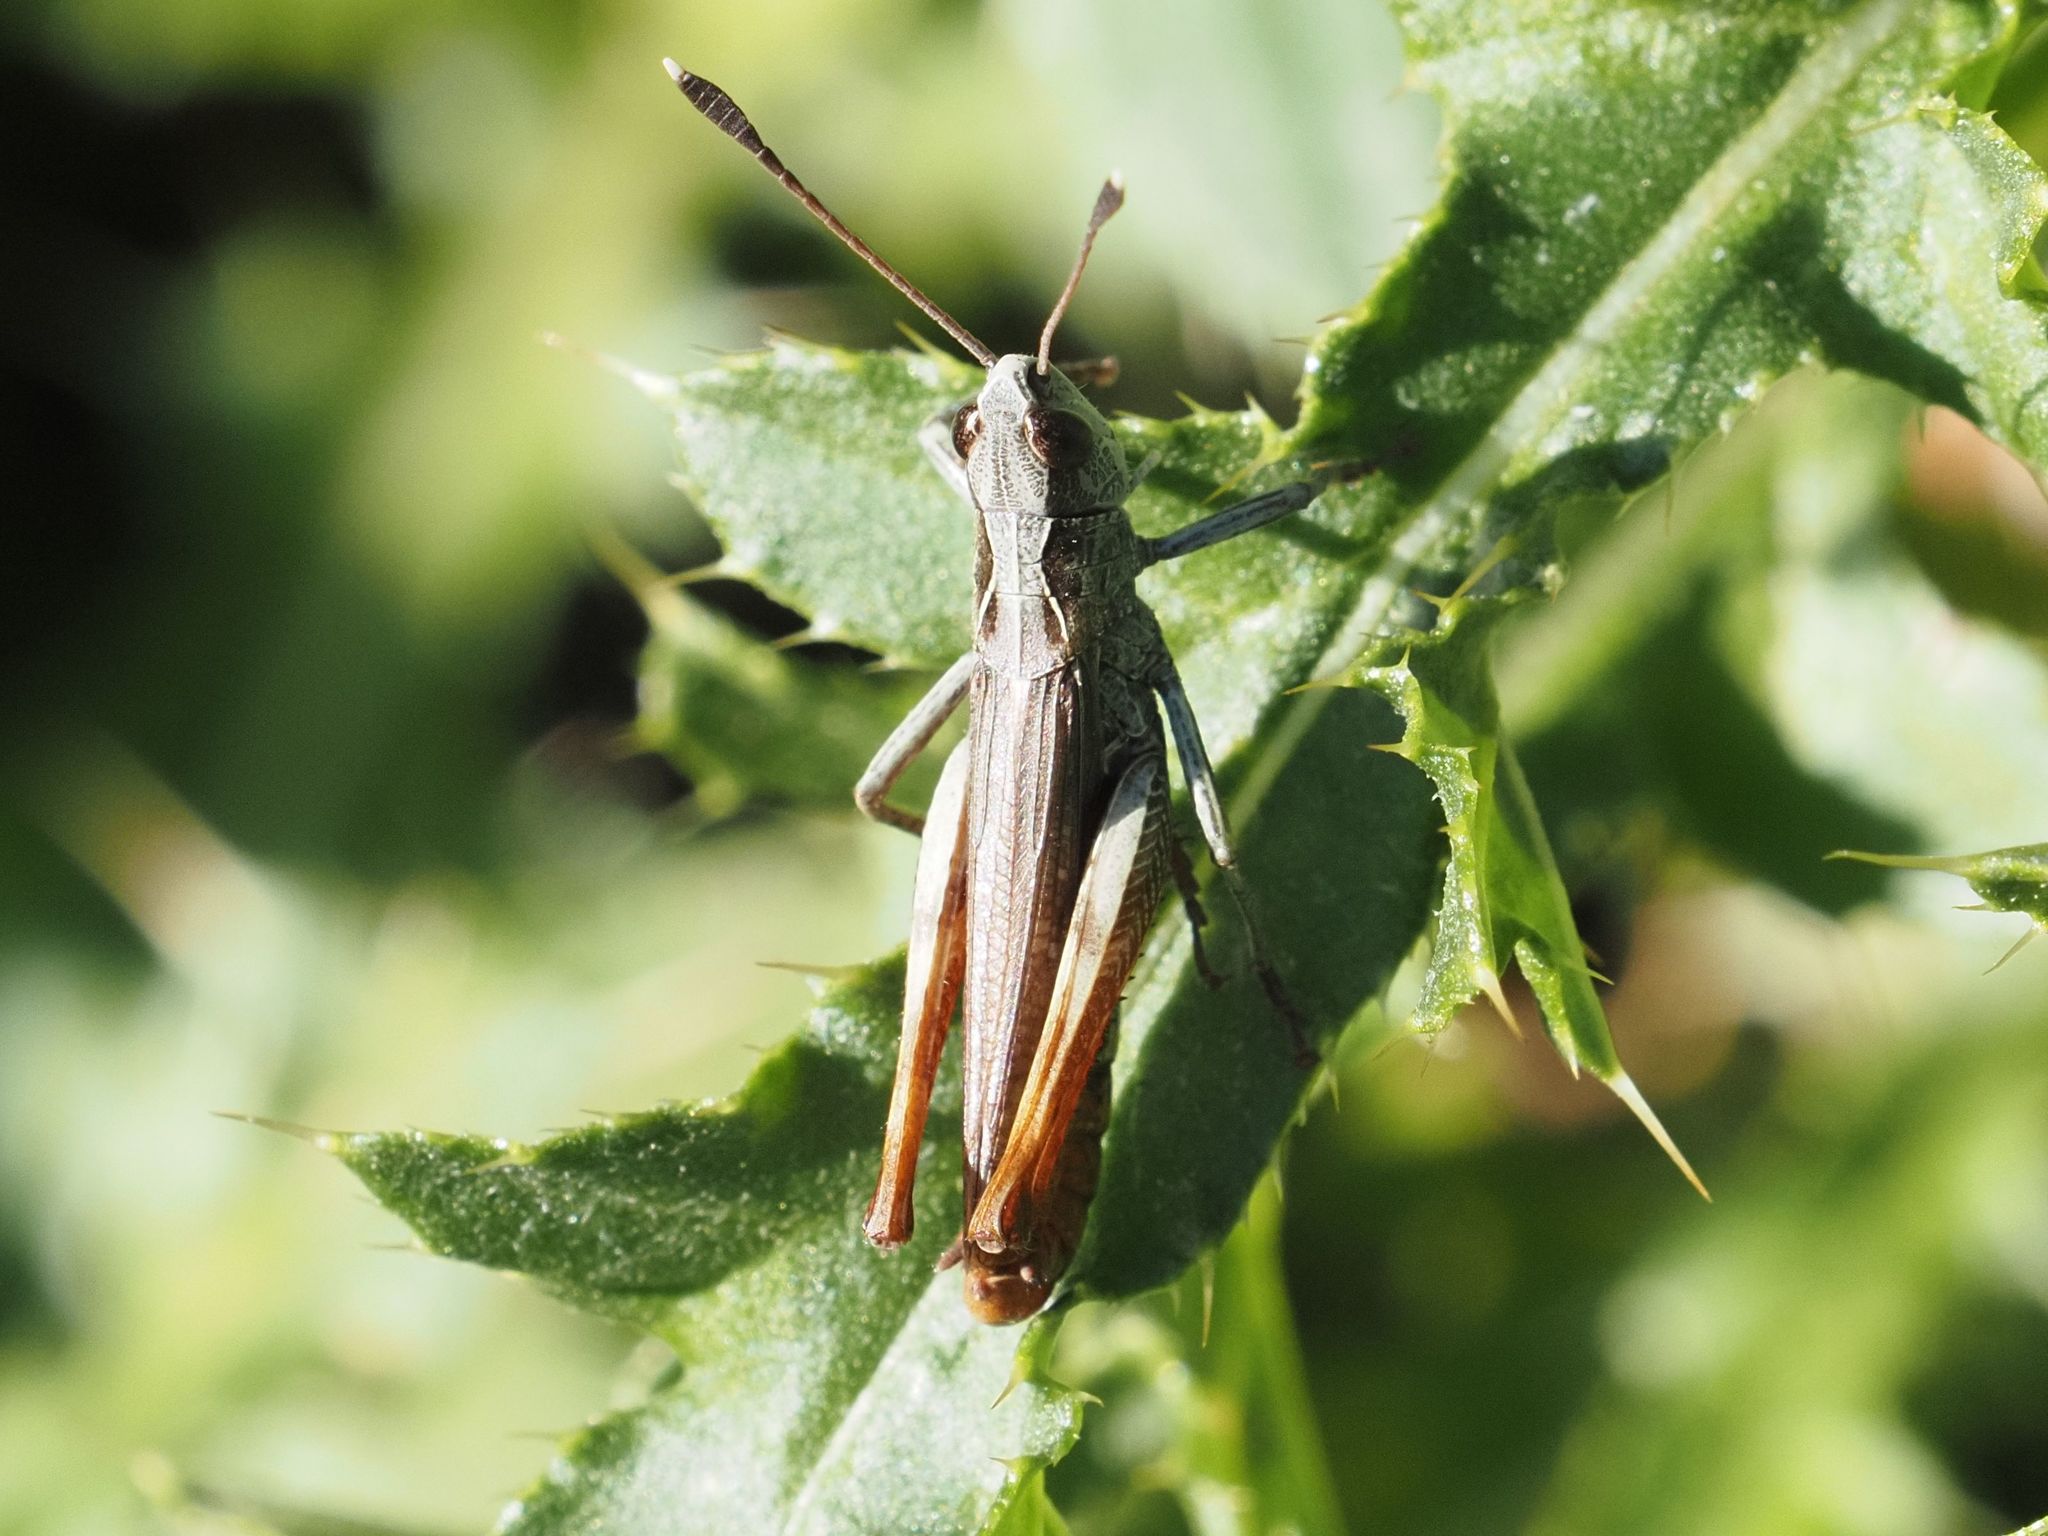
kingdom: Animalia
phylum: Arthropoda
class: Insecta
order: Orthoptera
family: Acrididae
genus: Gomphocerippus
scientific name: Gomphocerippus rufus
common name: Rufous grasshopper
